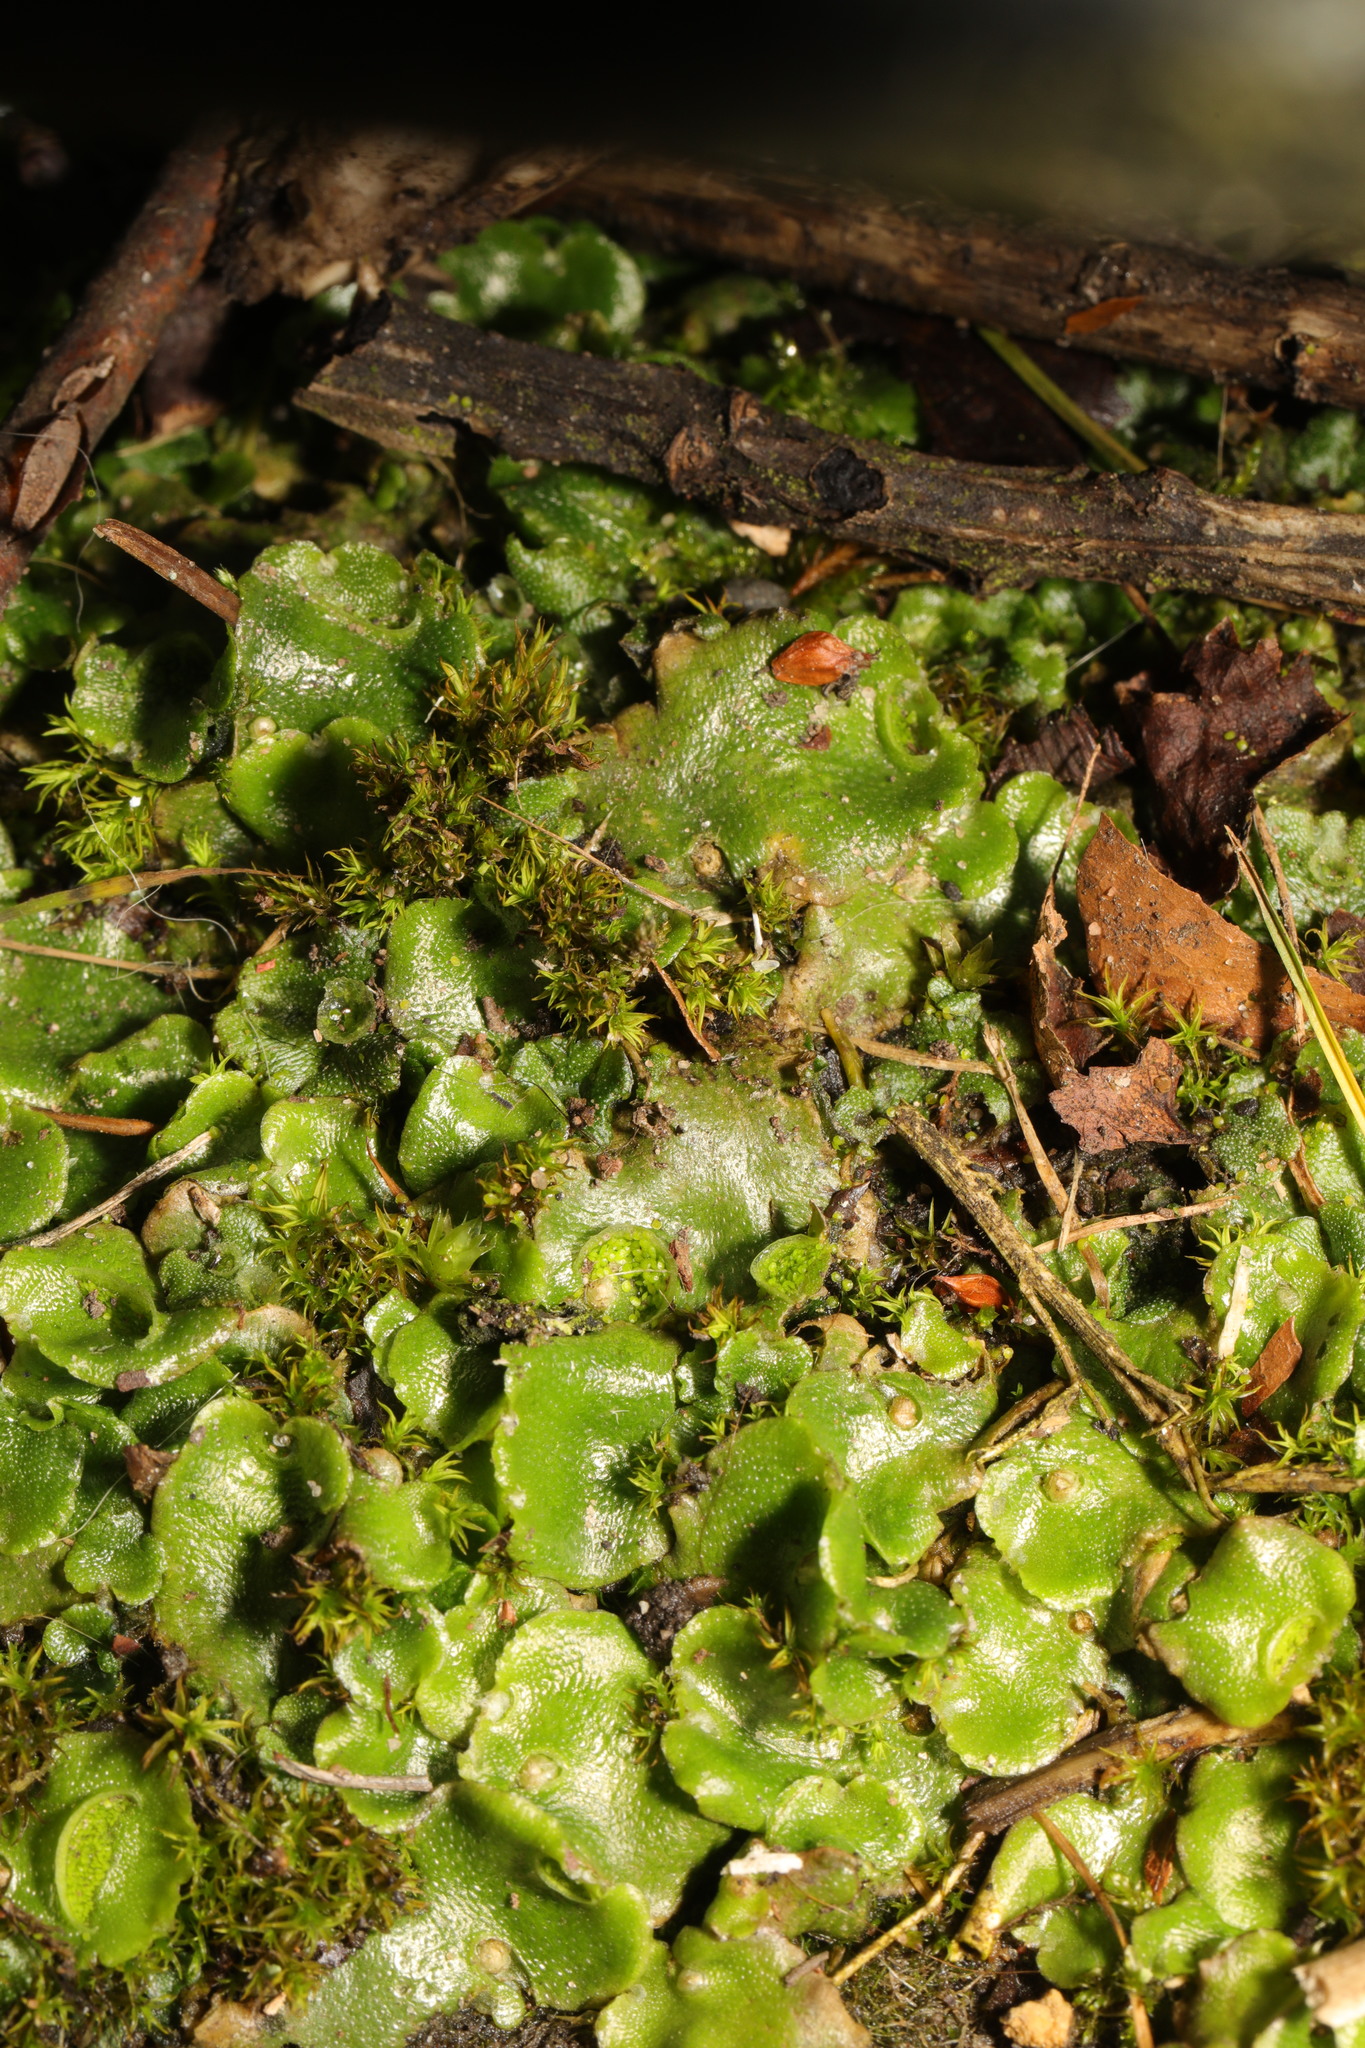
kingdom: Plantae
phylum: Marchantiophyta
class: Marchantiopsida
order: Lunulariales
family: Lunulariaceae
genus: Lunularia
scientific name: Lunularia cruciata
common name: Crescent-cup liverwort
